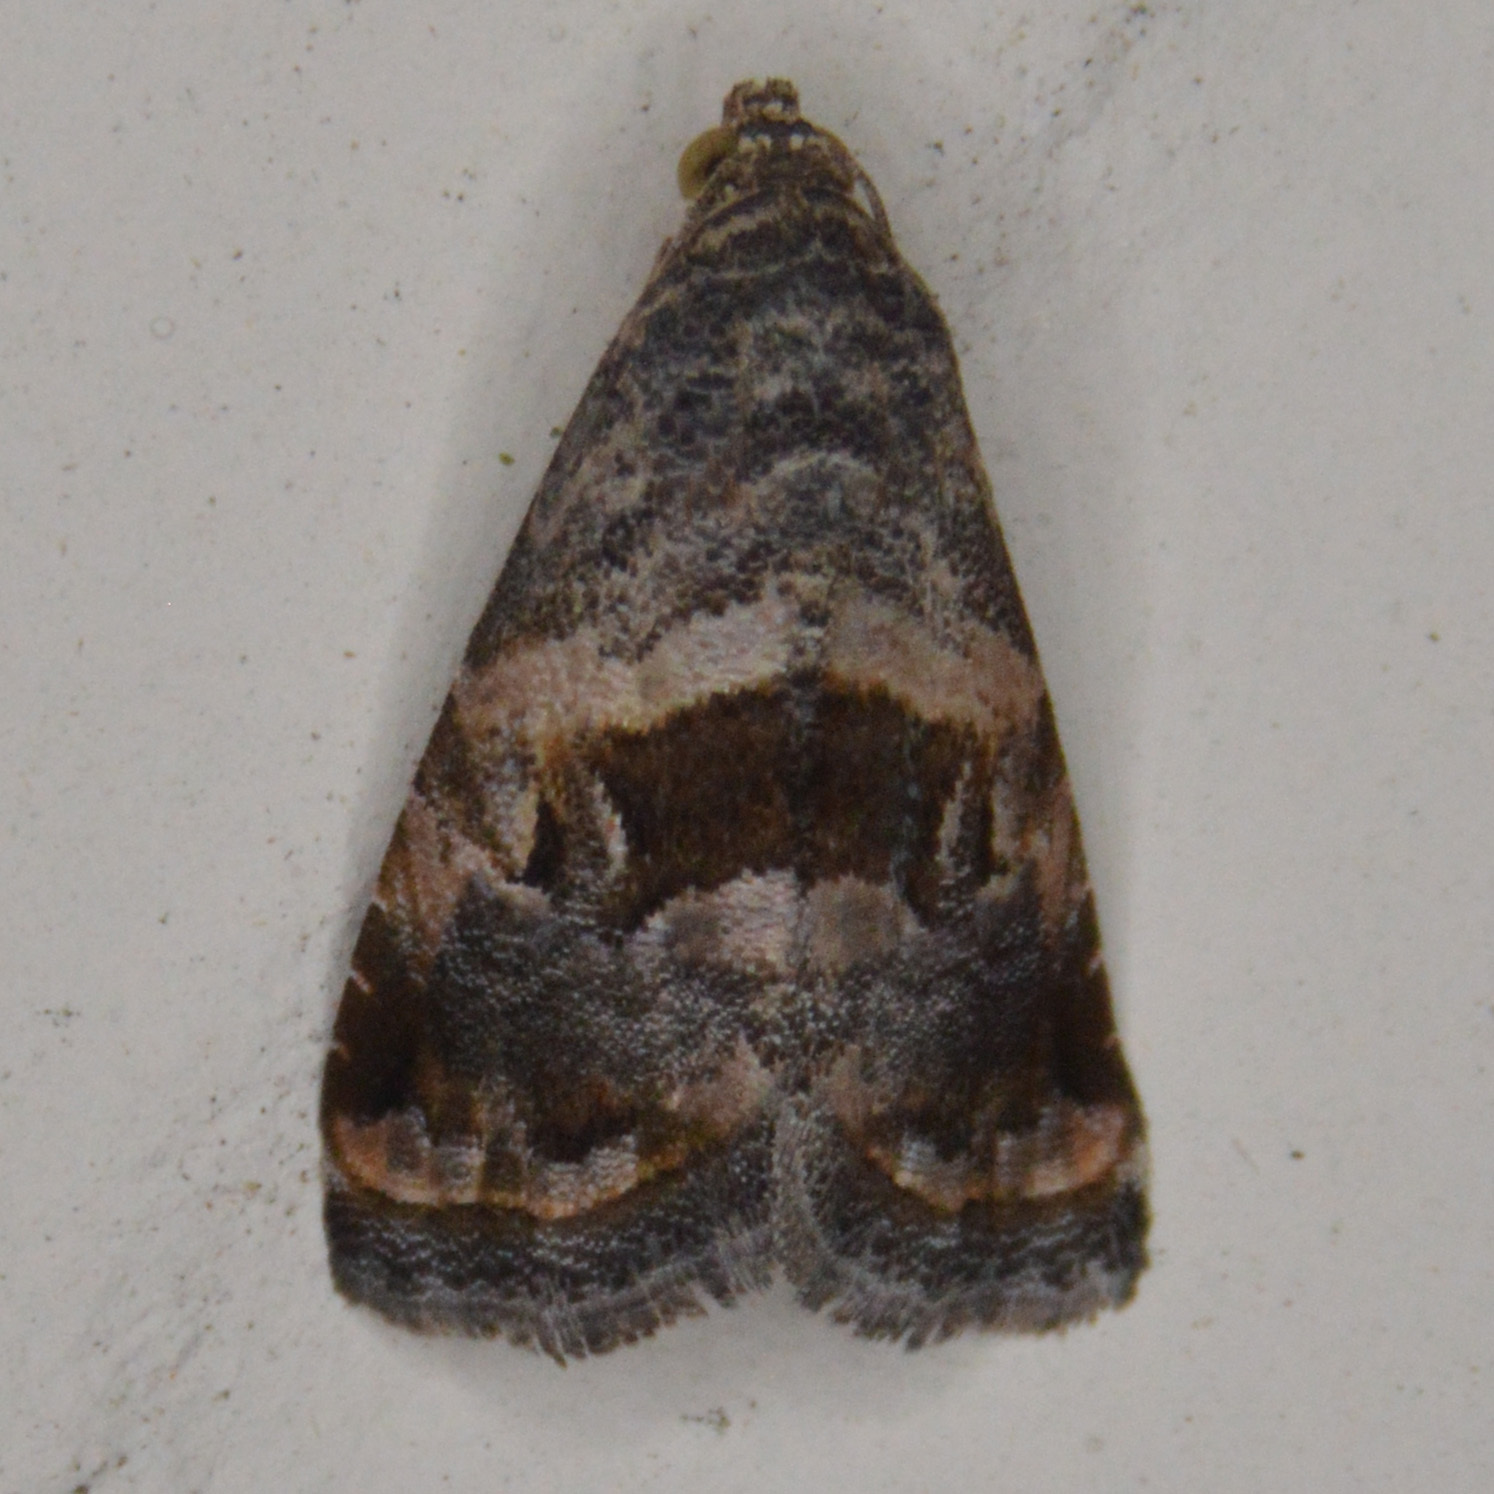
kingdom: Animalia
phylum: Arthropoda
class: Insecta
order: Lepidoptera
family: Noctuidae
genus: Tripudia
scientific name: Tripudia quadrifera
